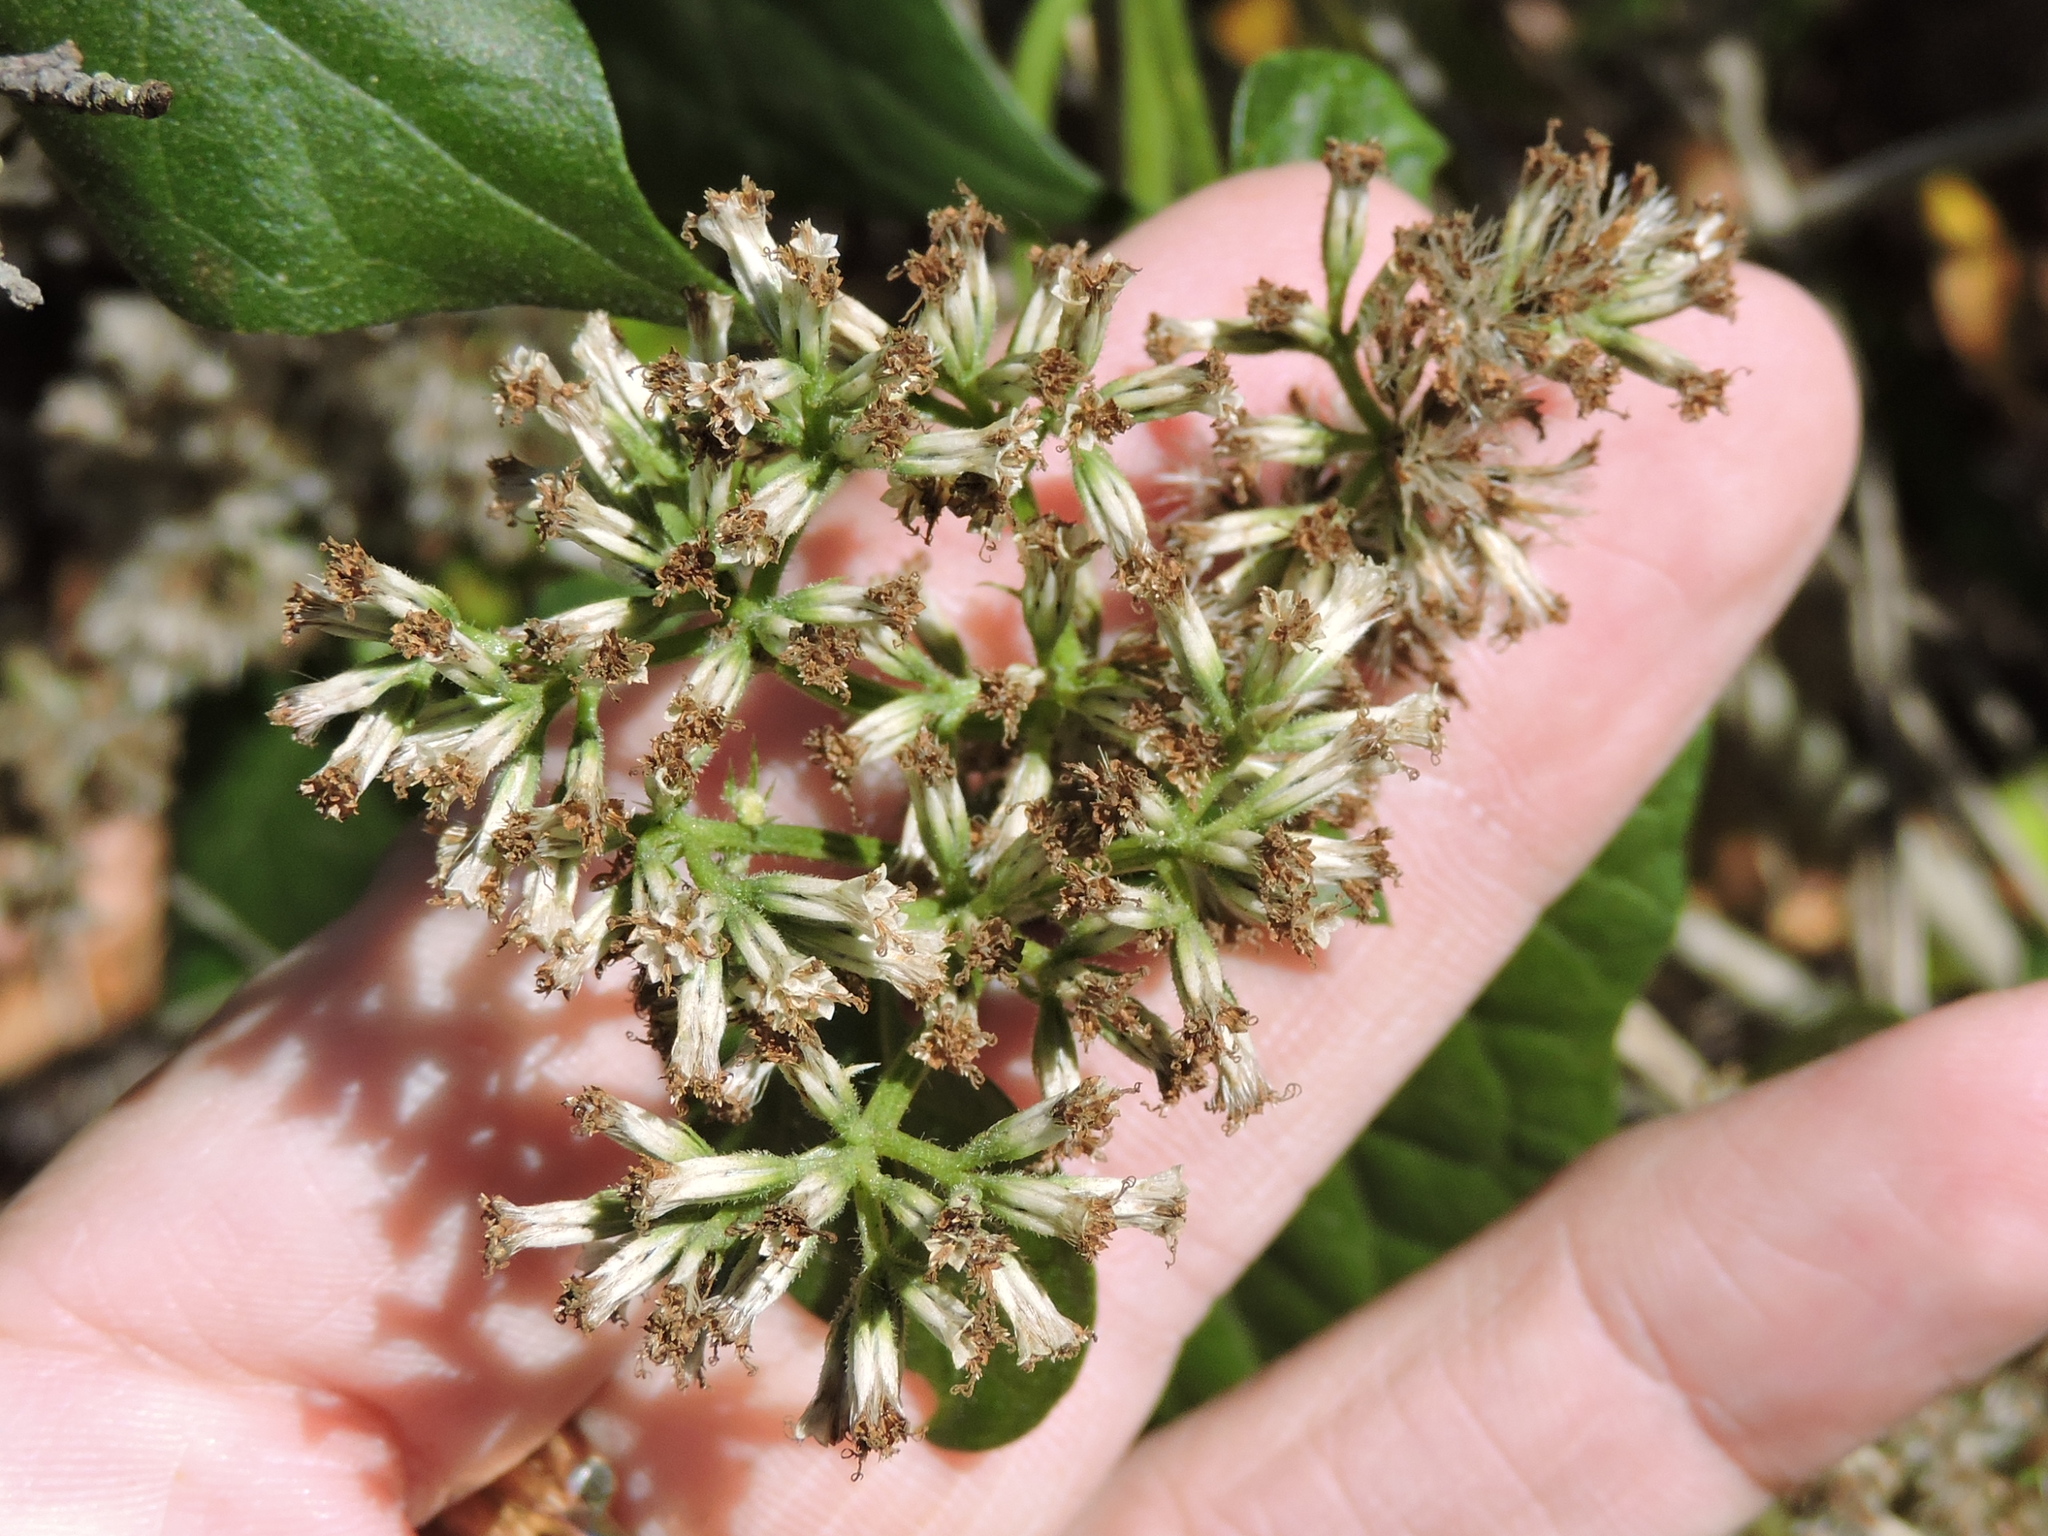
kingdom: Plantae
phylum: Tracheophyta
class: Magnoliopsida
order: Asterales
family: Asteraceae
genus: Mikania
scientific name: Mikania scandens
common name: Climbing hempvine
